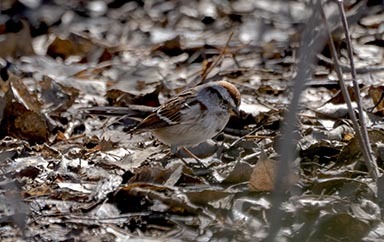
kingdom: Animalia
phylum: Chordata
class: Aves
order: Passeriformes
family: Passerellidae
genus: Spizelloides
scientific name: Spizelloides arborea
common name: American tree sparrow
